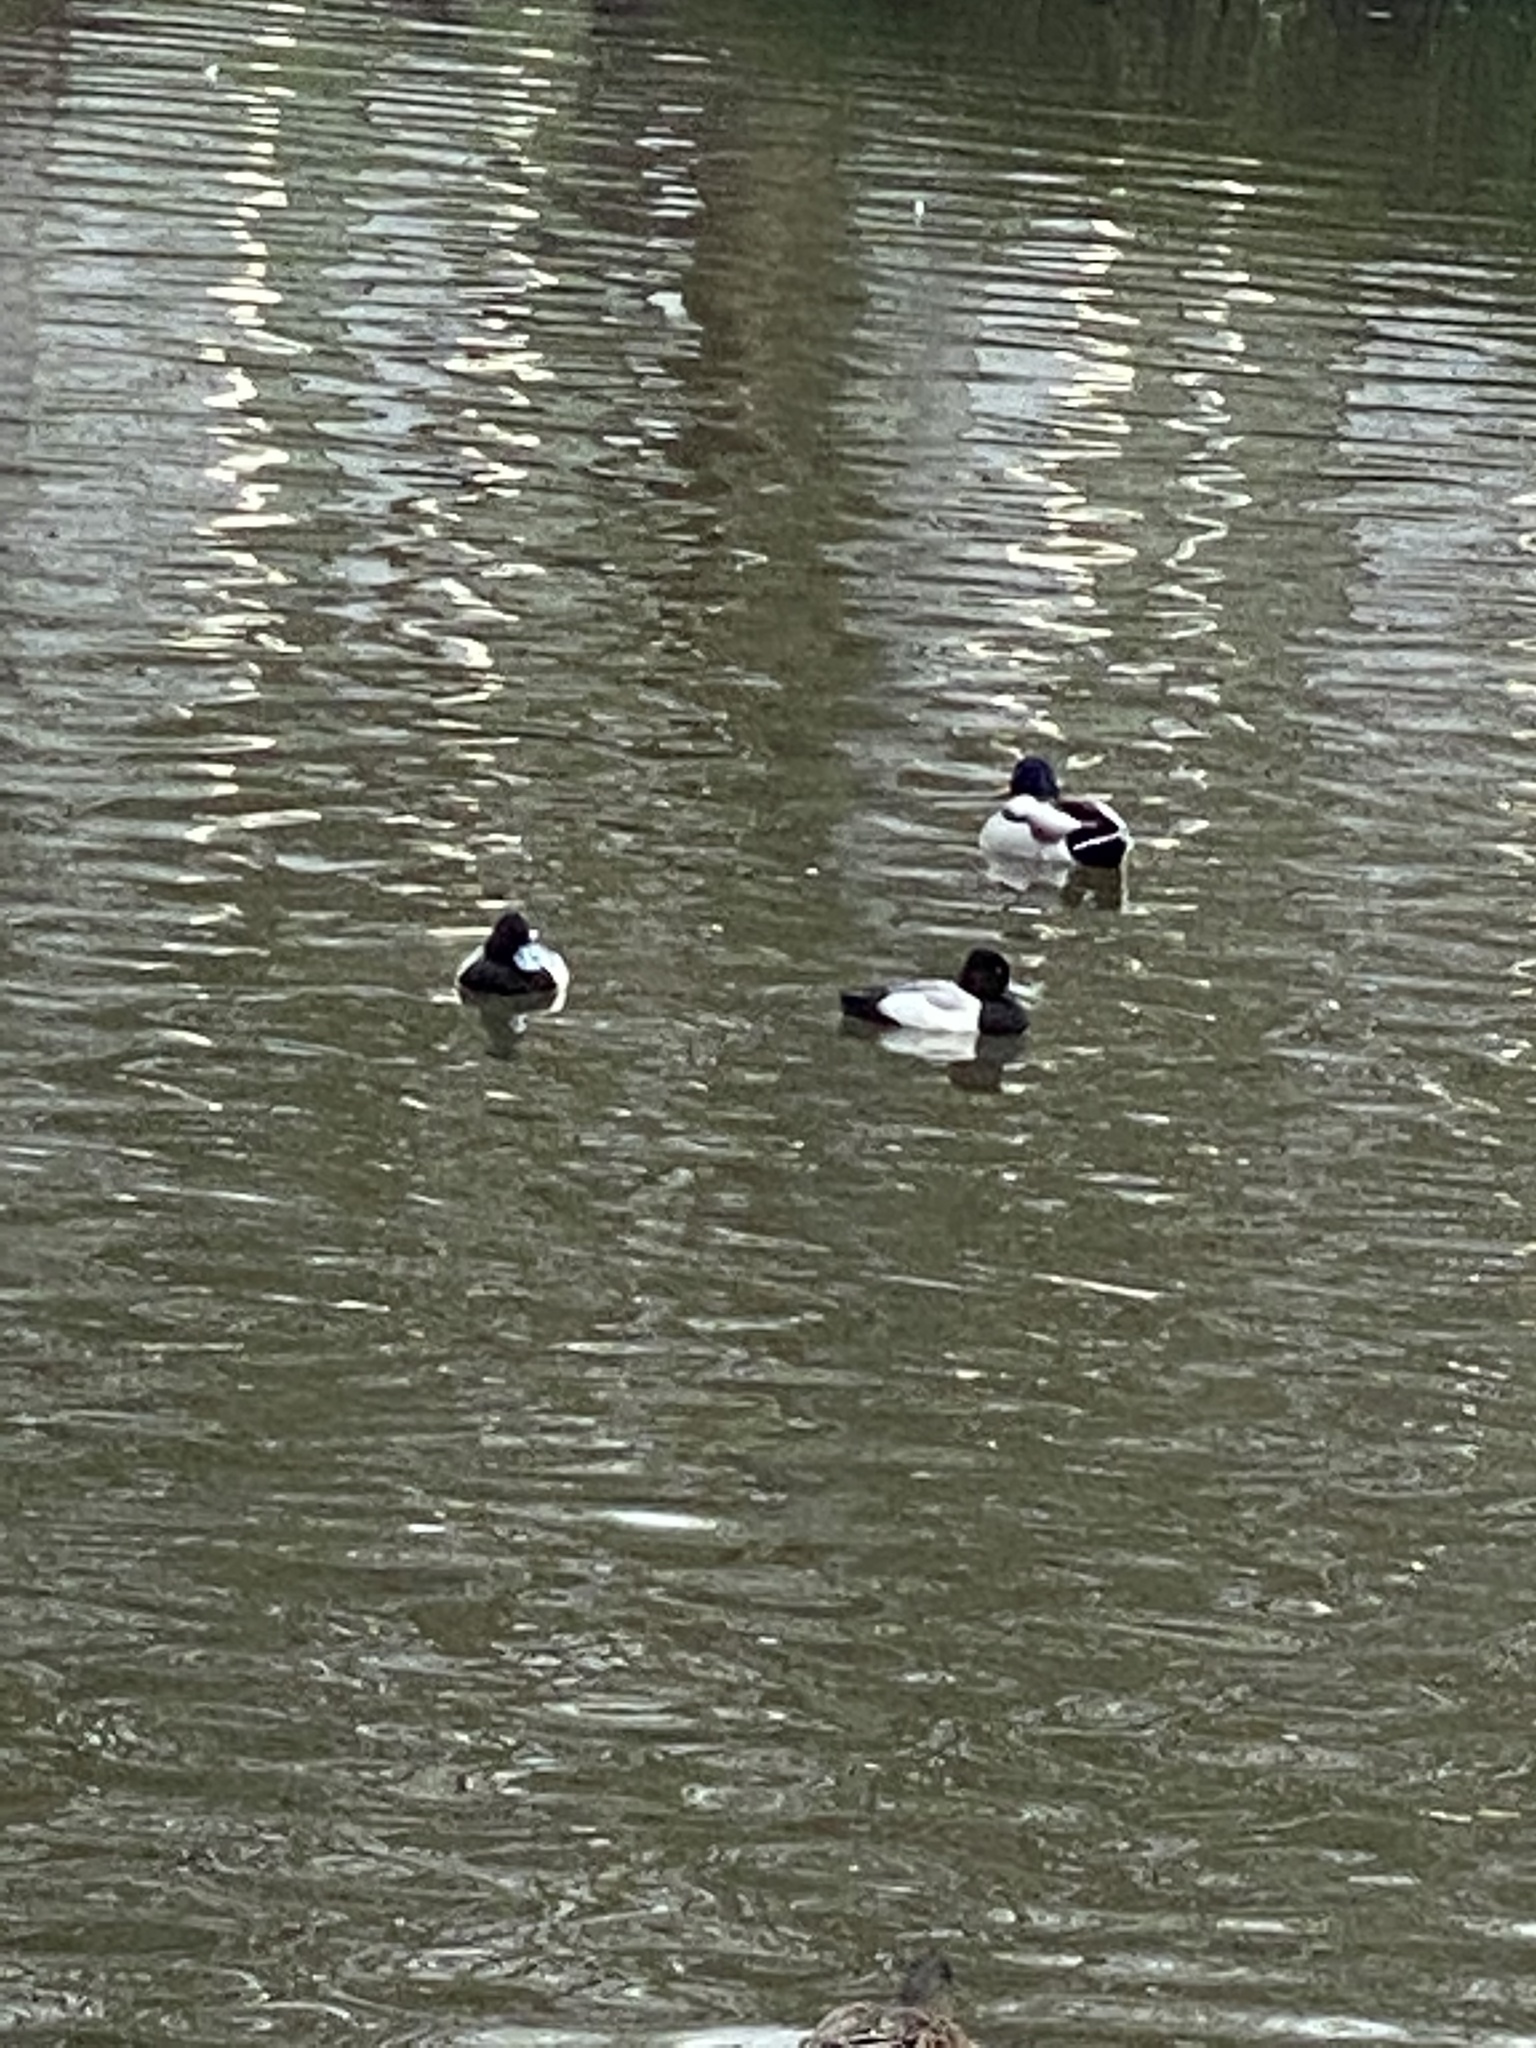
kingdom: Animalia
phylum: Chordata
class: Aves
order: Anseriformes
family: Anatidae
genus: Aythya
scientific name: Aythya affinis
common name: Lesser scaup
